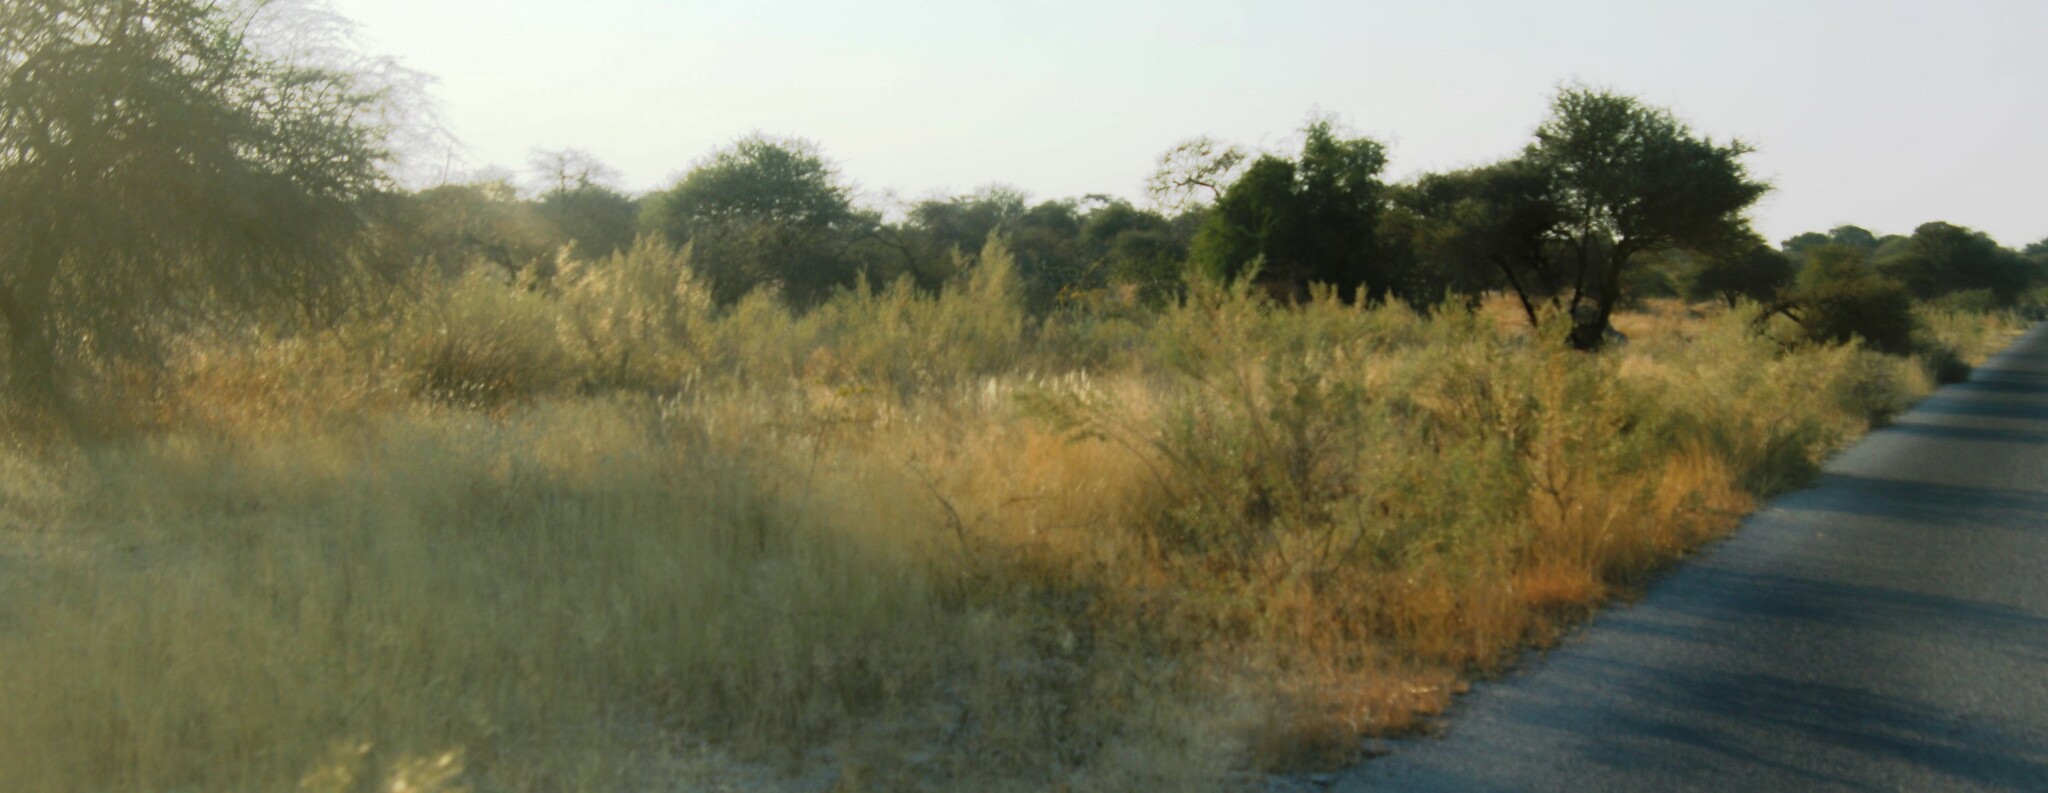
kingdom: Plantae
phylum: Tracheophyta
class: Magnoliopsida
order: Asterales
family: Asteraceae
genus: Pechuel-loeschea
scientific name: Pechuel-loeschea leubnitziae
